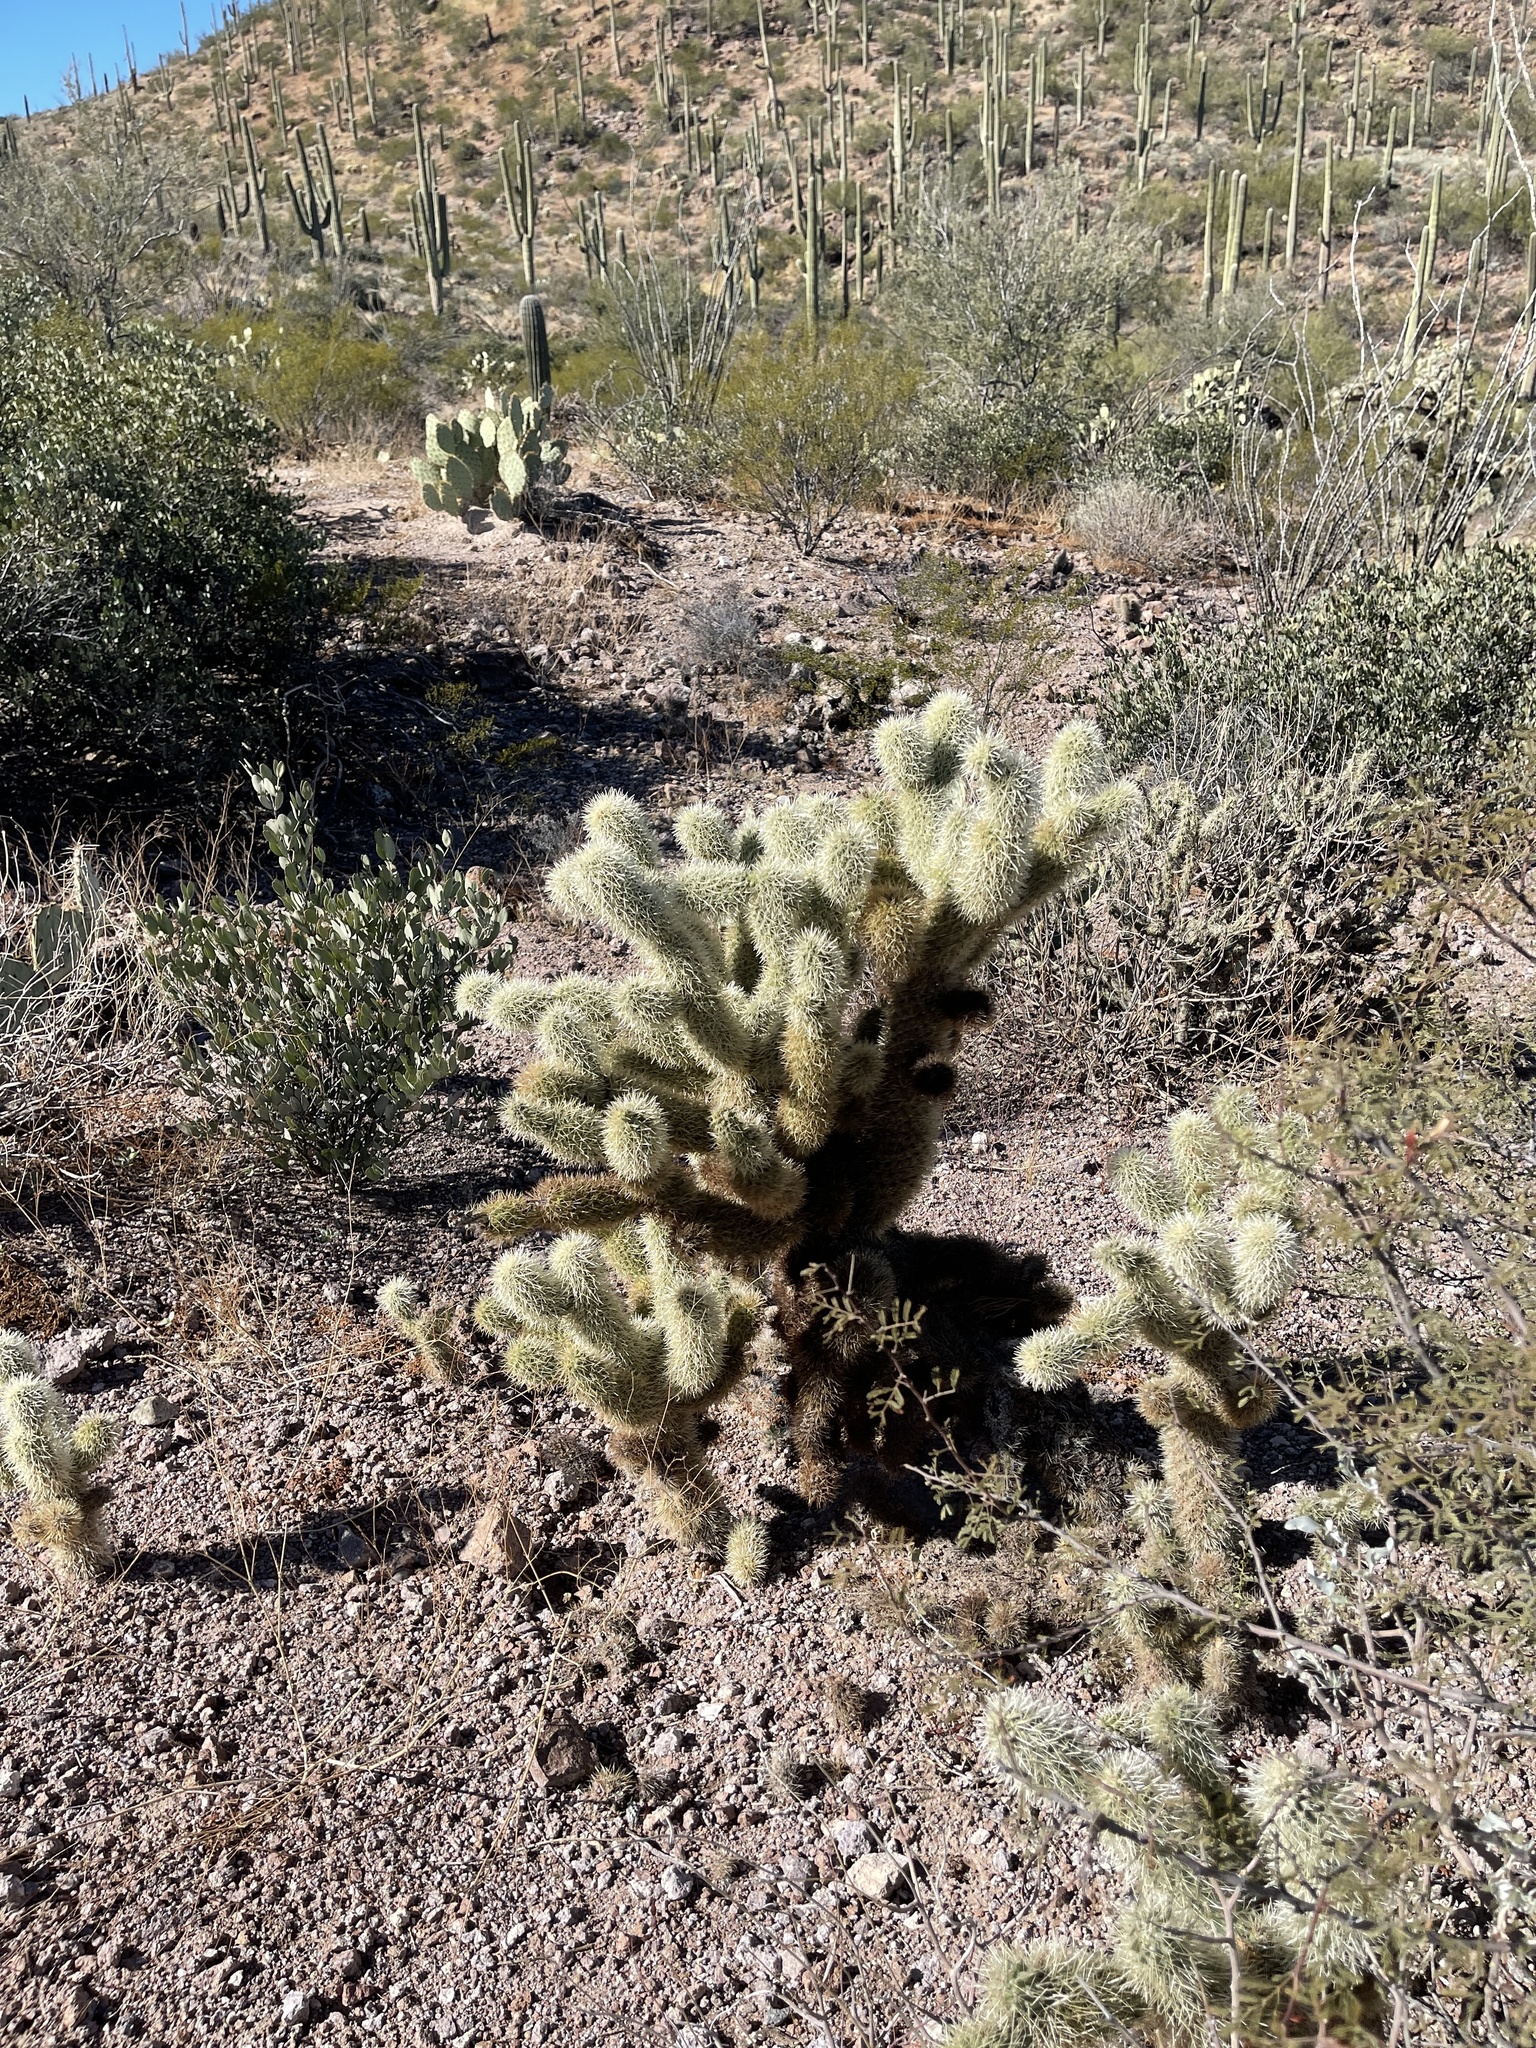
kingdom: Plantae
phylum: Tracheophyta
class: Magnoliopsida
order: Caryophyllales
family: Cactaceae
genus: Cylindropuntia
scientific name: Cylindropuntia fosbergii
